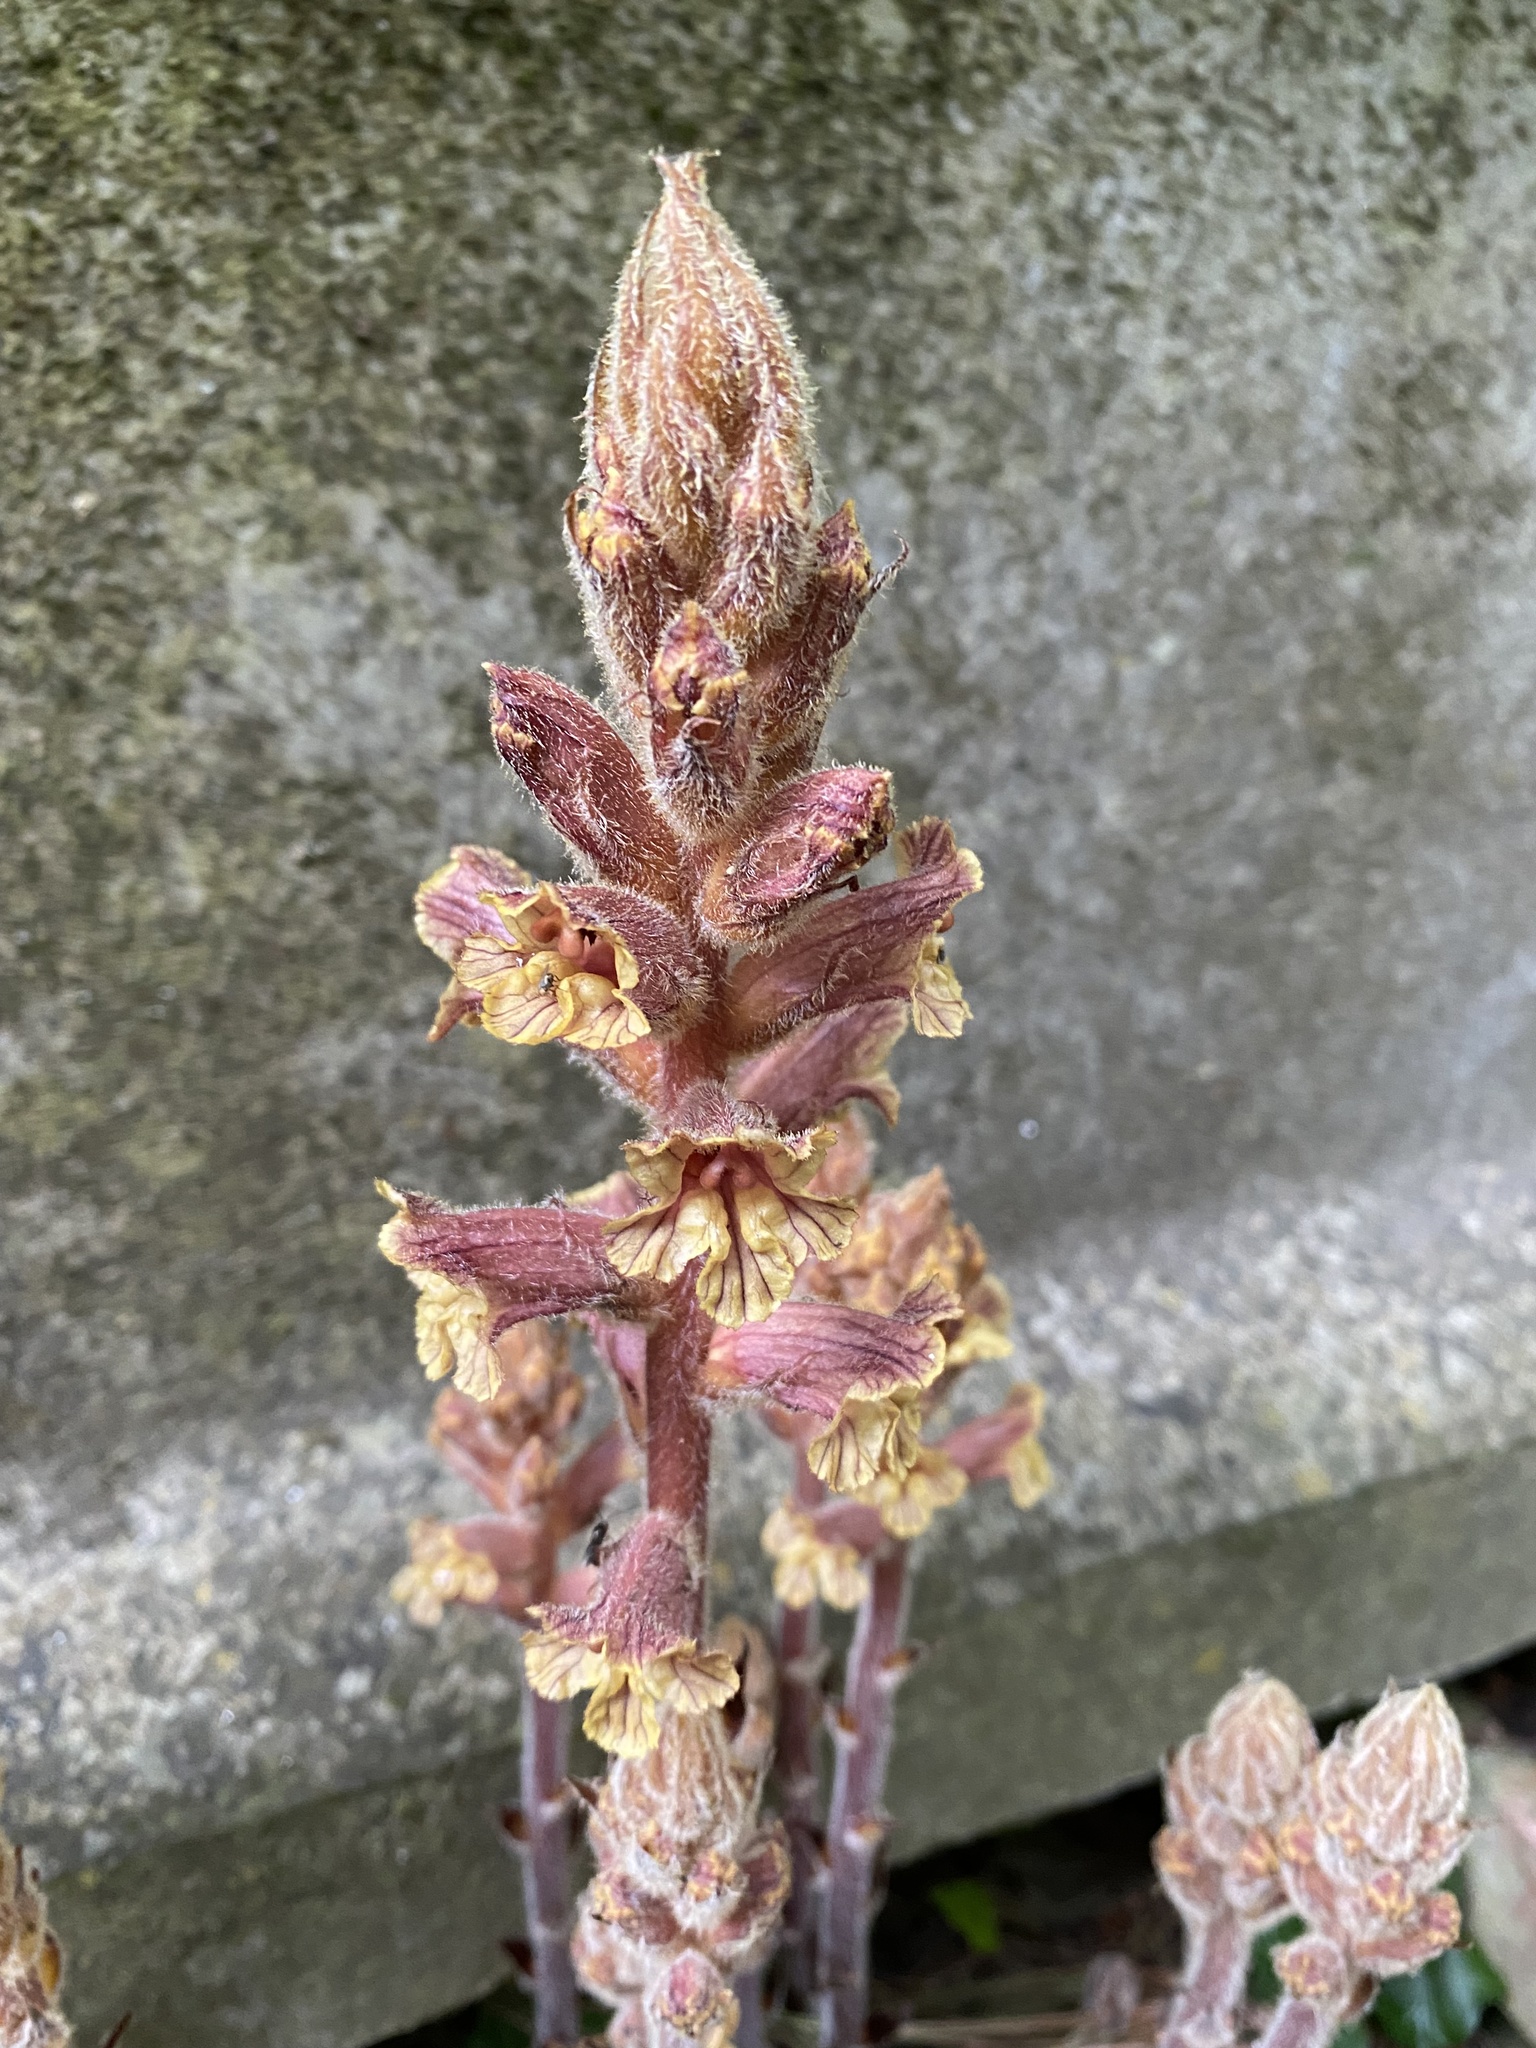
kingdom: Plantae
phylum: Tracheophyta
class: Magnoliopsida
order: Lamiales
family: Orobanchaceae
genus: Orobanche
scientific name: Orobanche laxissima
